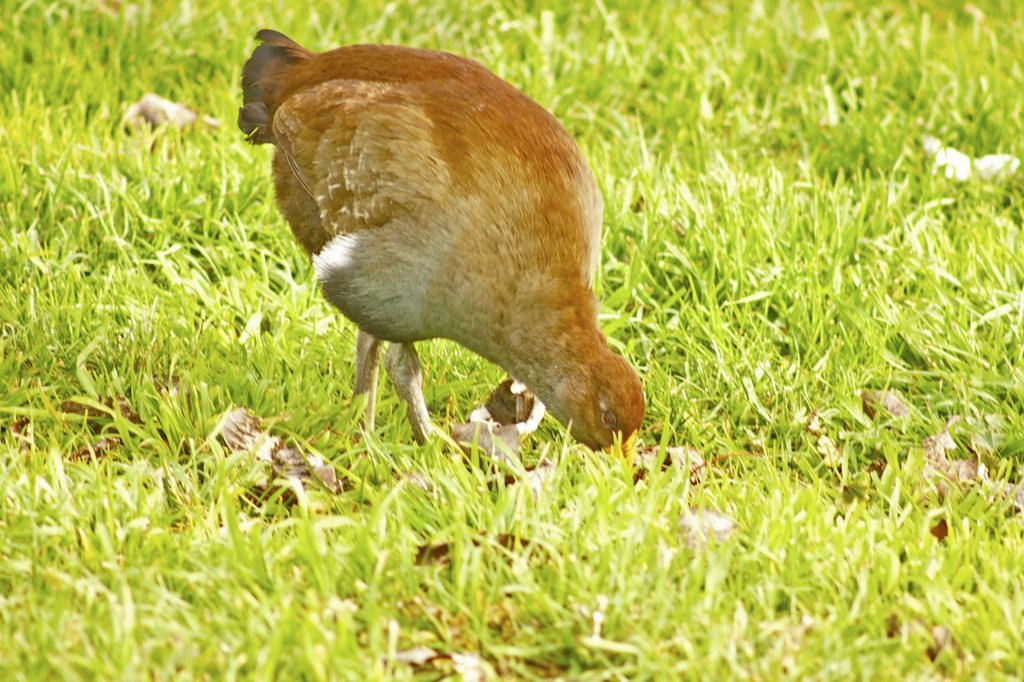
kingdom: Animalia
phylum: Chordata
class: Aves
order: Gruiformes
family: Rallidae
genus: Gallinula
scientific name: Gallinula mortierii
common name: Tasmanian nativehen
